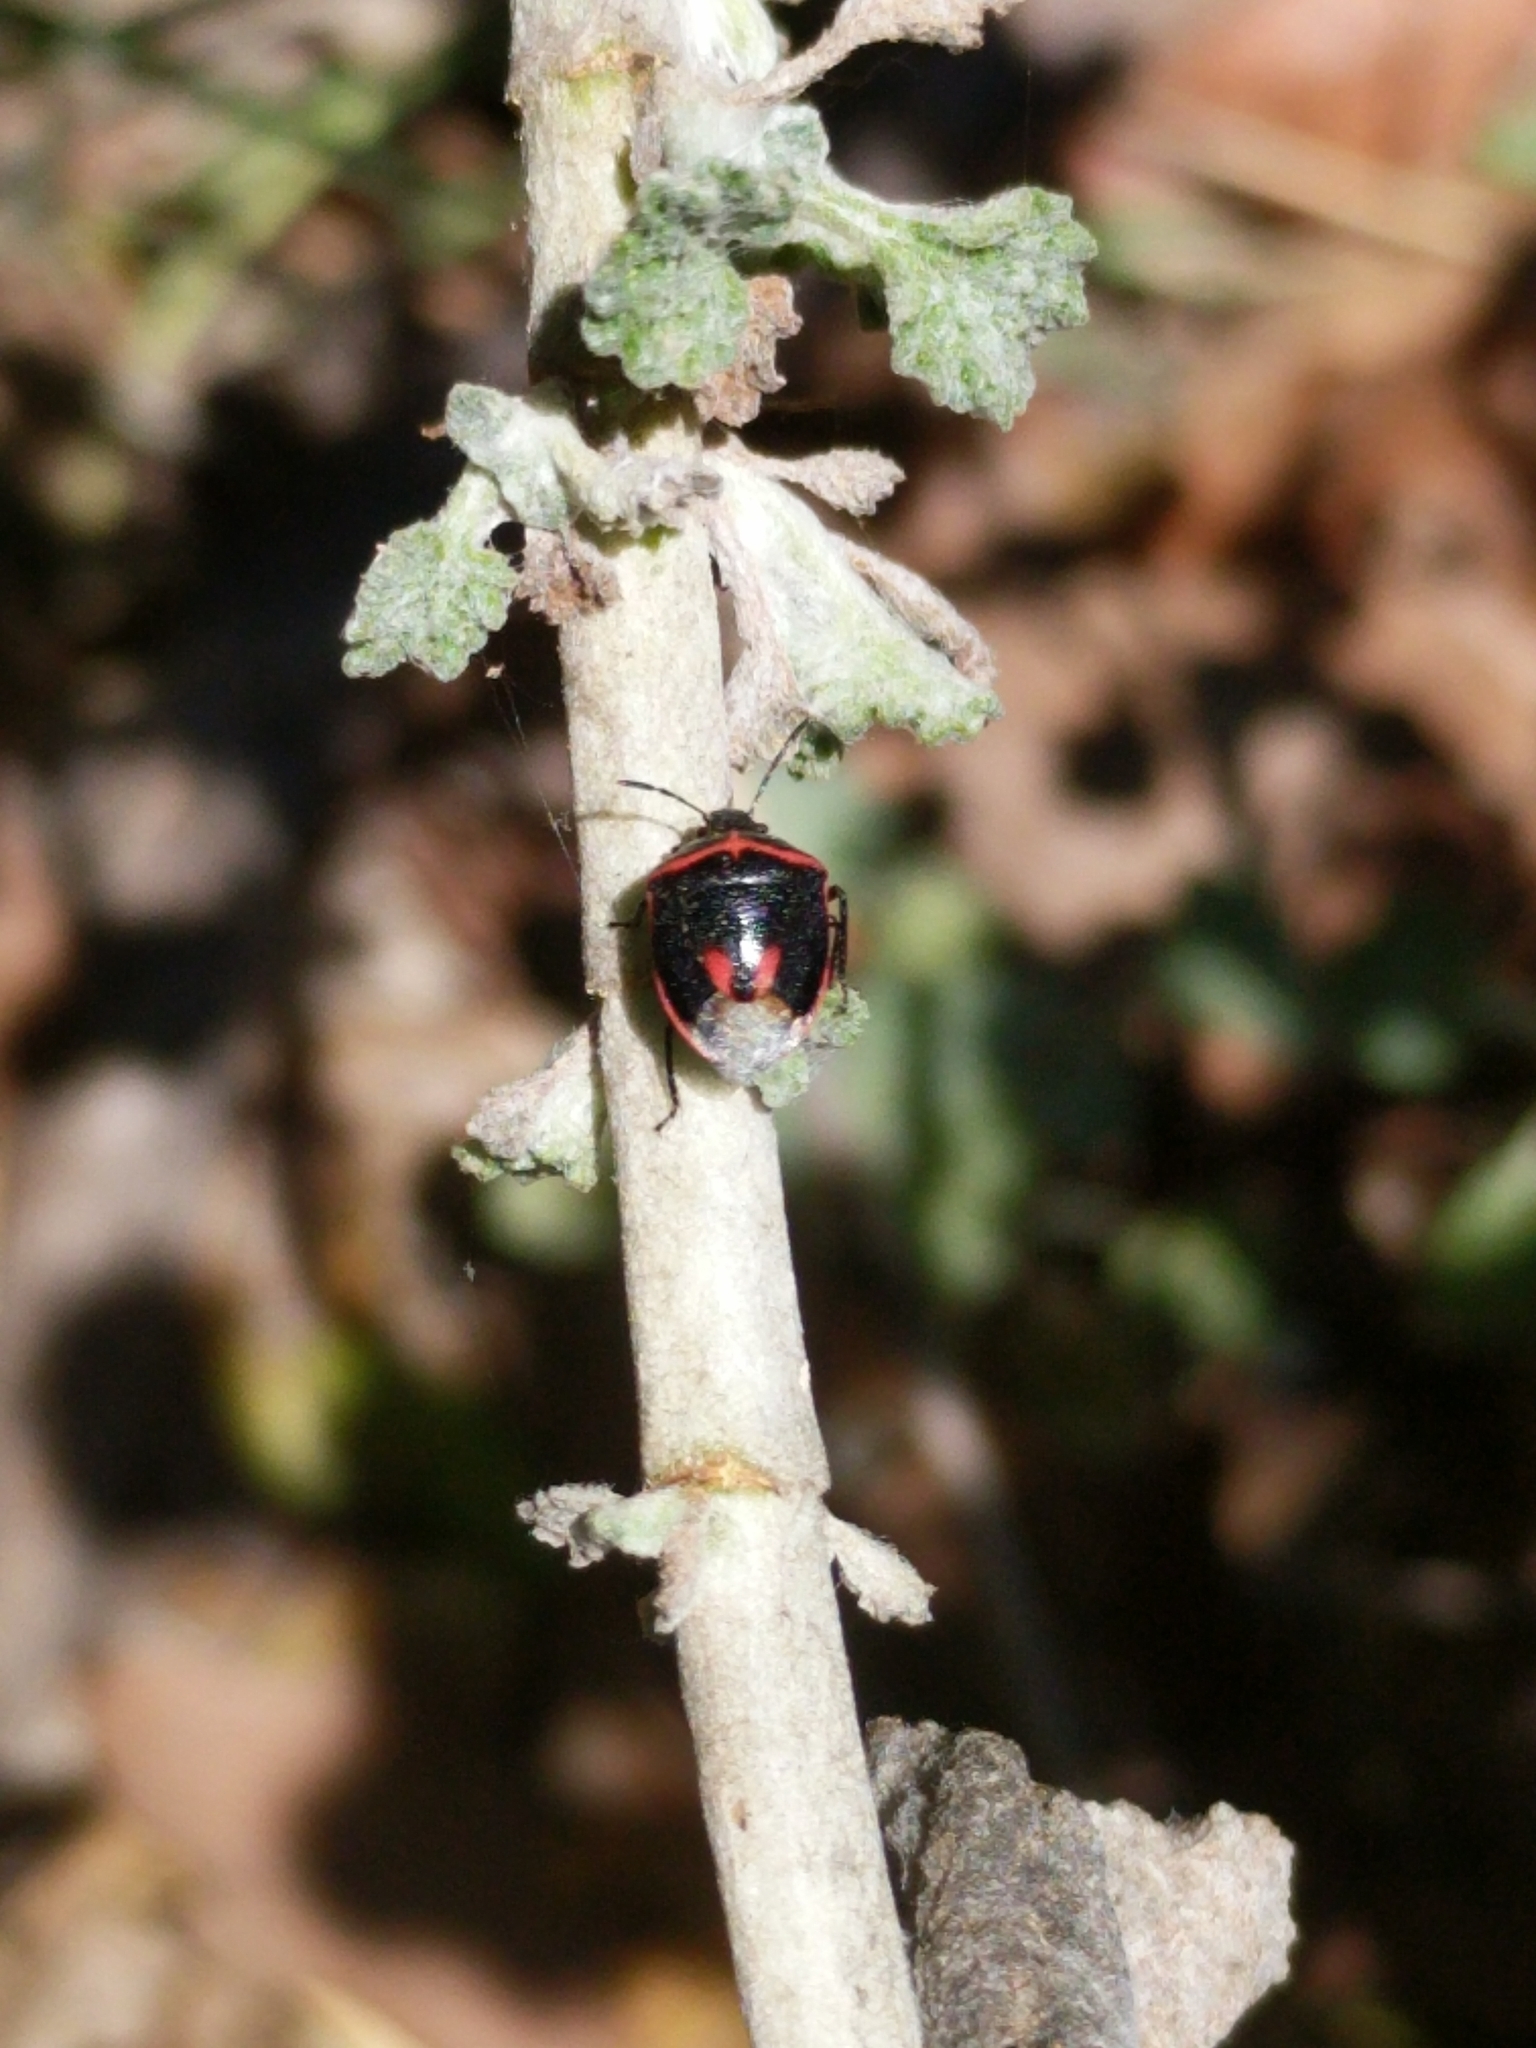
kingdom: Animalia
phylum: Arthropoda
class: Insecta
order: Hemiptera
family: Pentatomidae
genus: Cosmopepla
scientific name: Cosmopepla lintneriana
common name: Twice-stabbed stink bug
